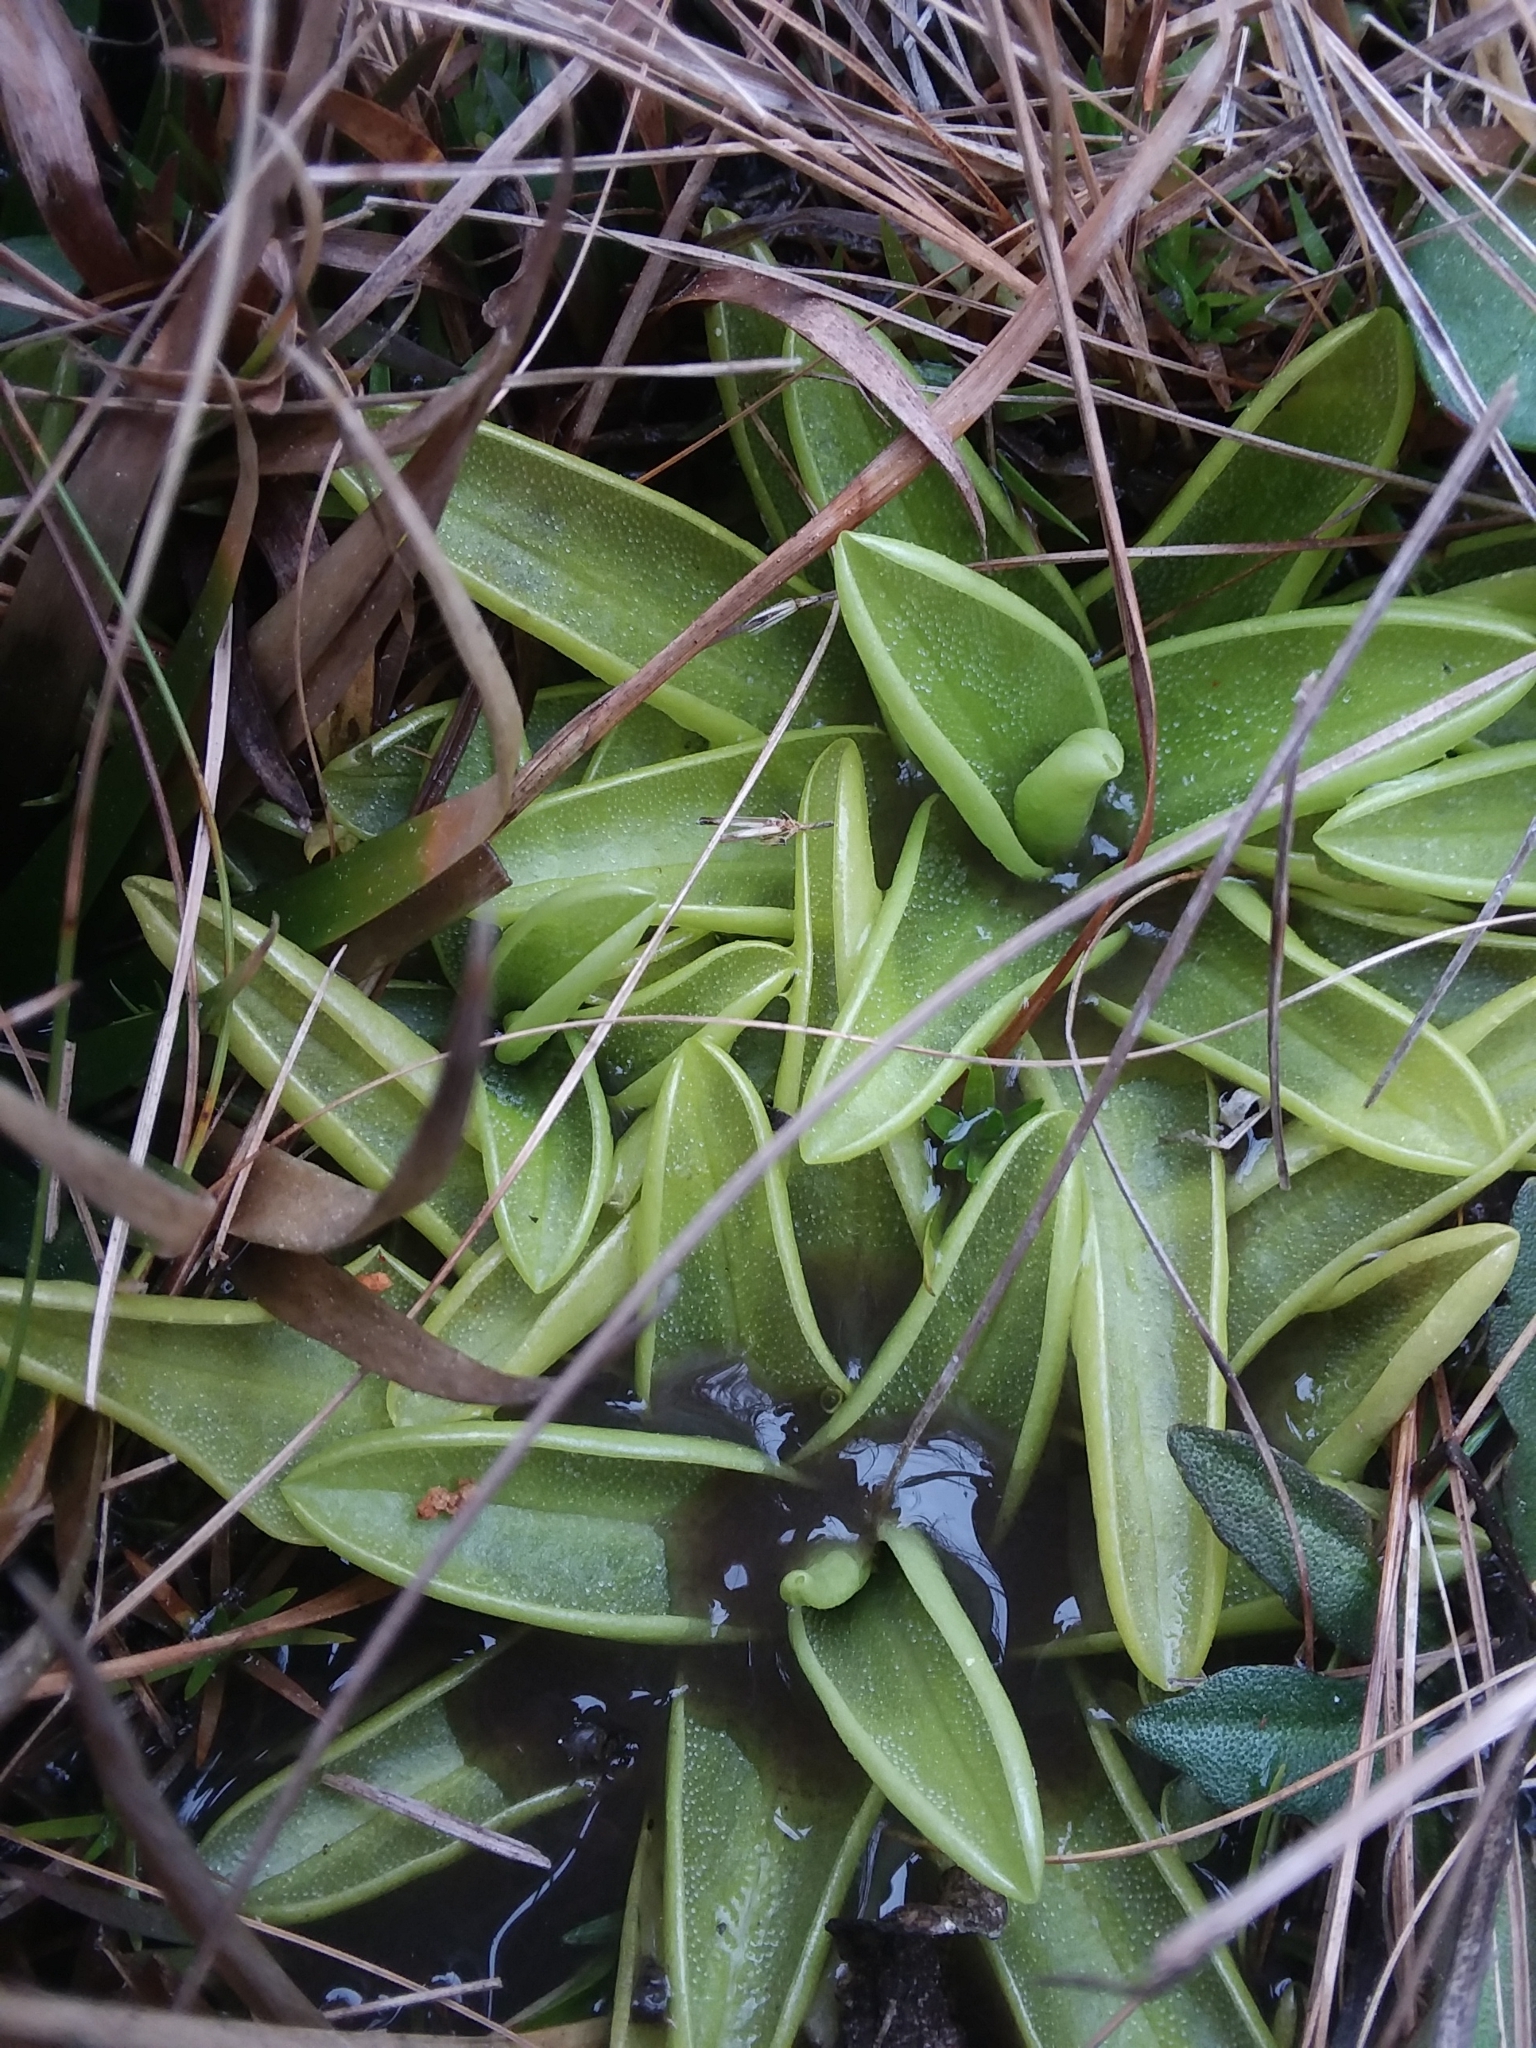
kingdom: Plantae
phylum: Tracheophyta
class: Magnoliopsida
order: Lamiales
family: Lentibulariaceae
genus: Pinguicula
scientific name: Pinguicula primuliflora
